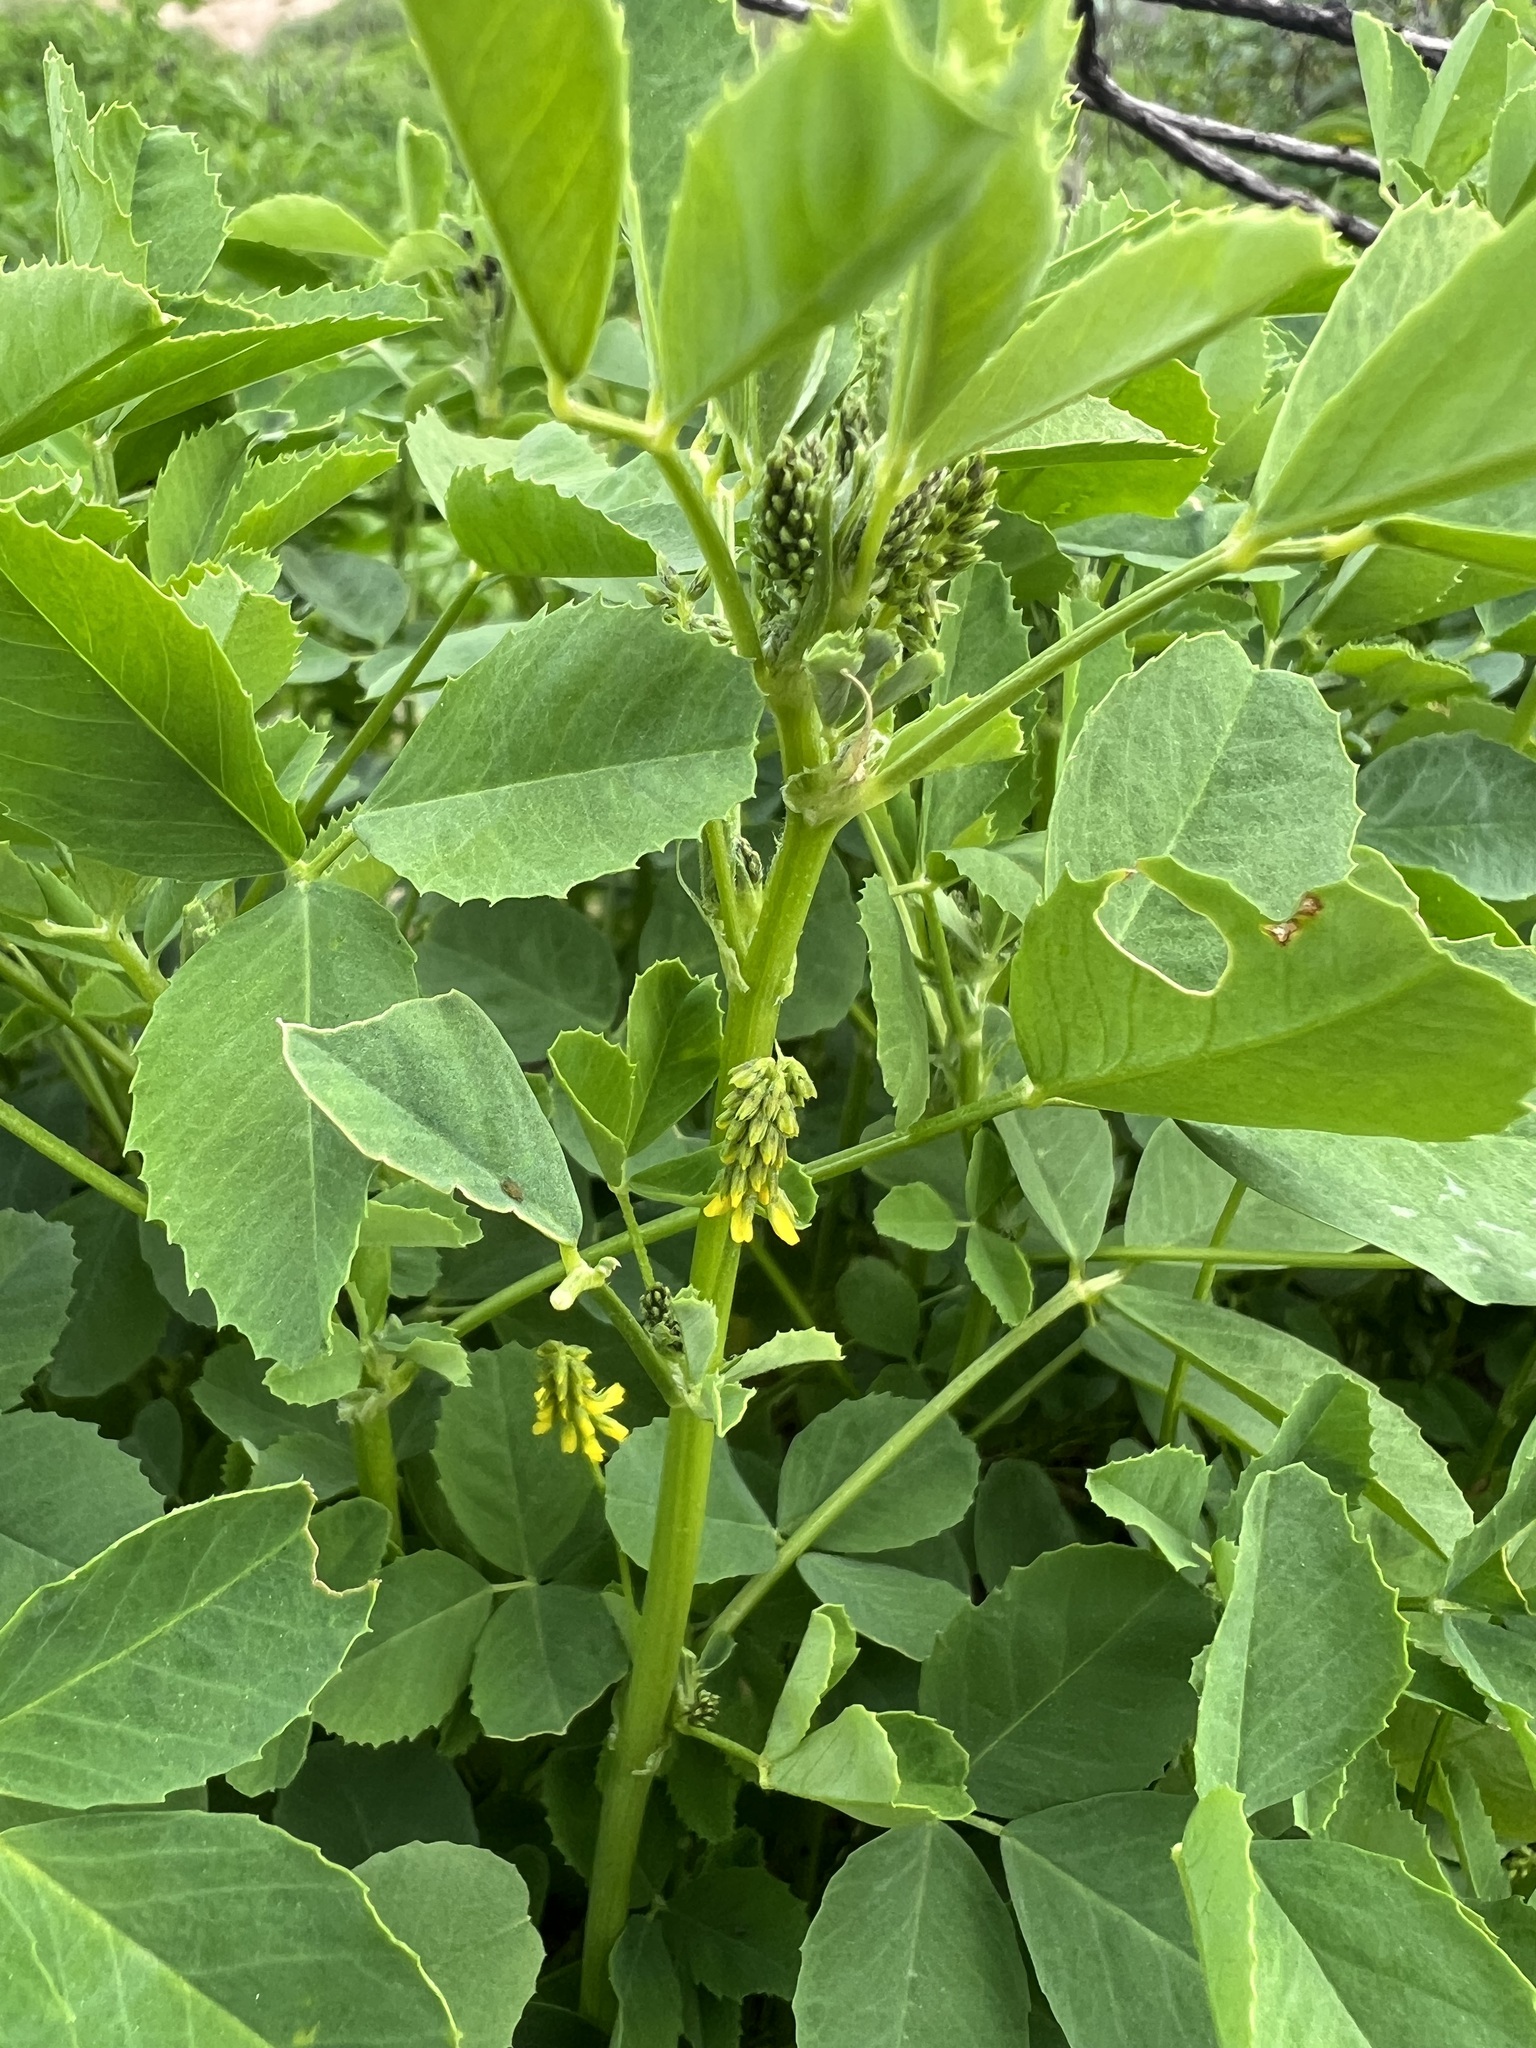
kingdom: Plantae
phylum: Tracheophyta
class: Magnoliopsida
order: Fabales
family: Fabaceae
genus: Melilotus
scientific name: Melilotus indicus
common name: Small melilot
